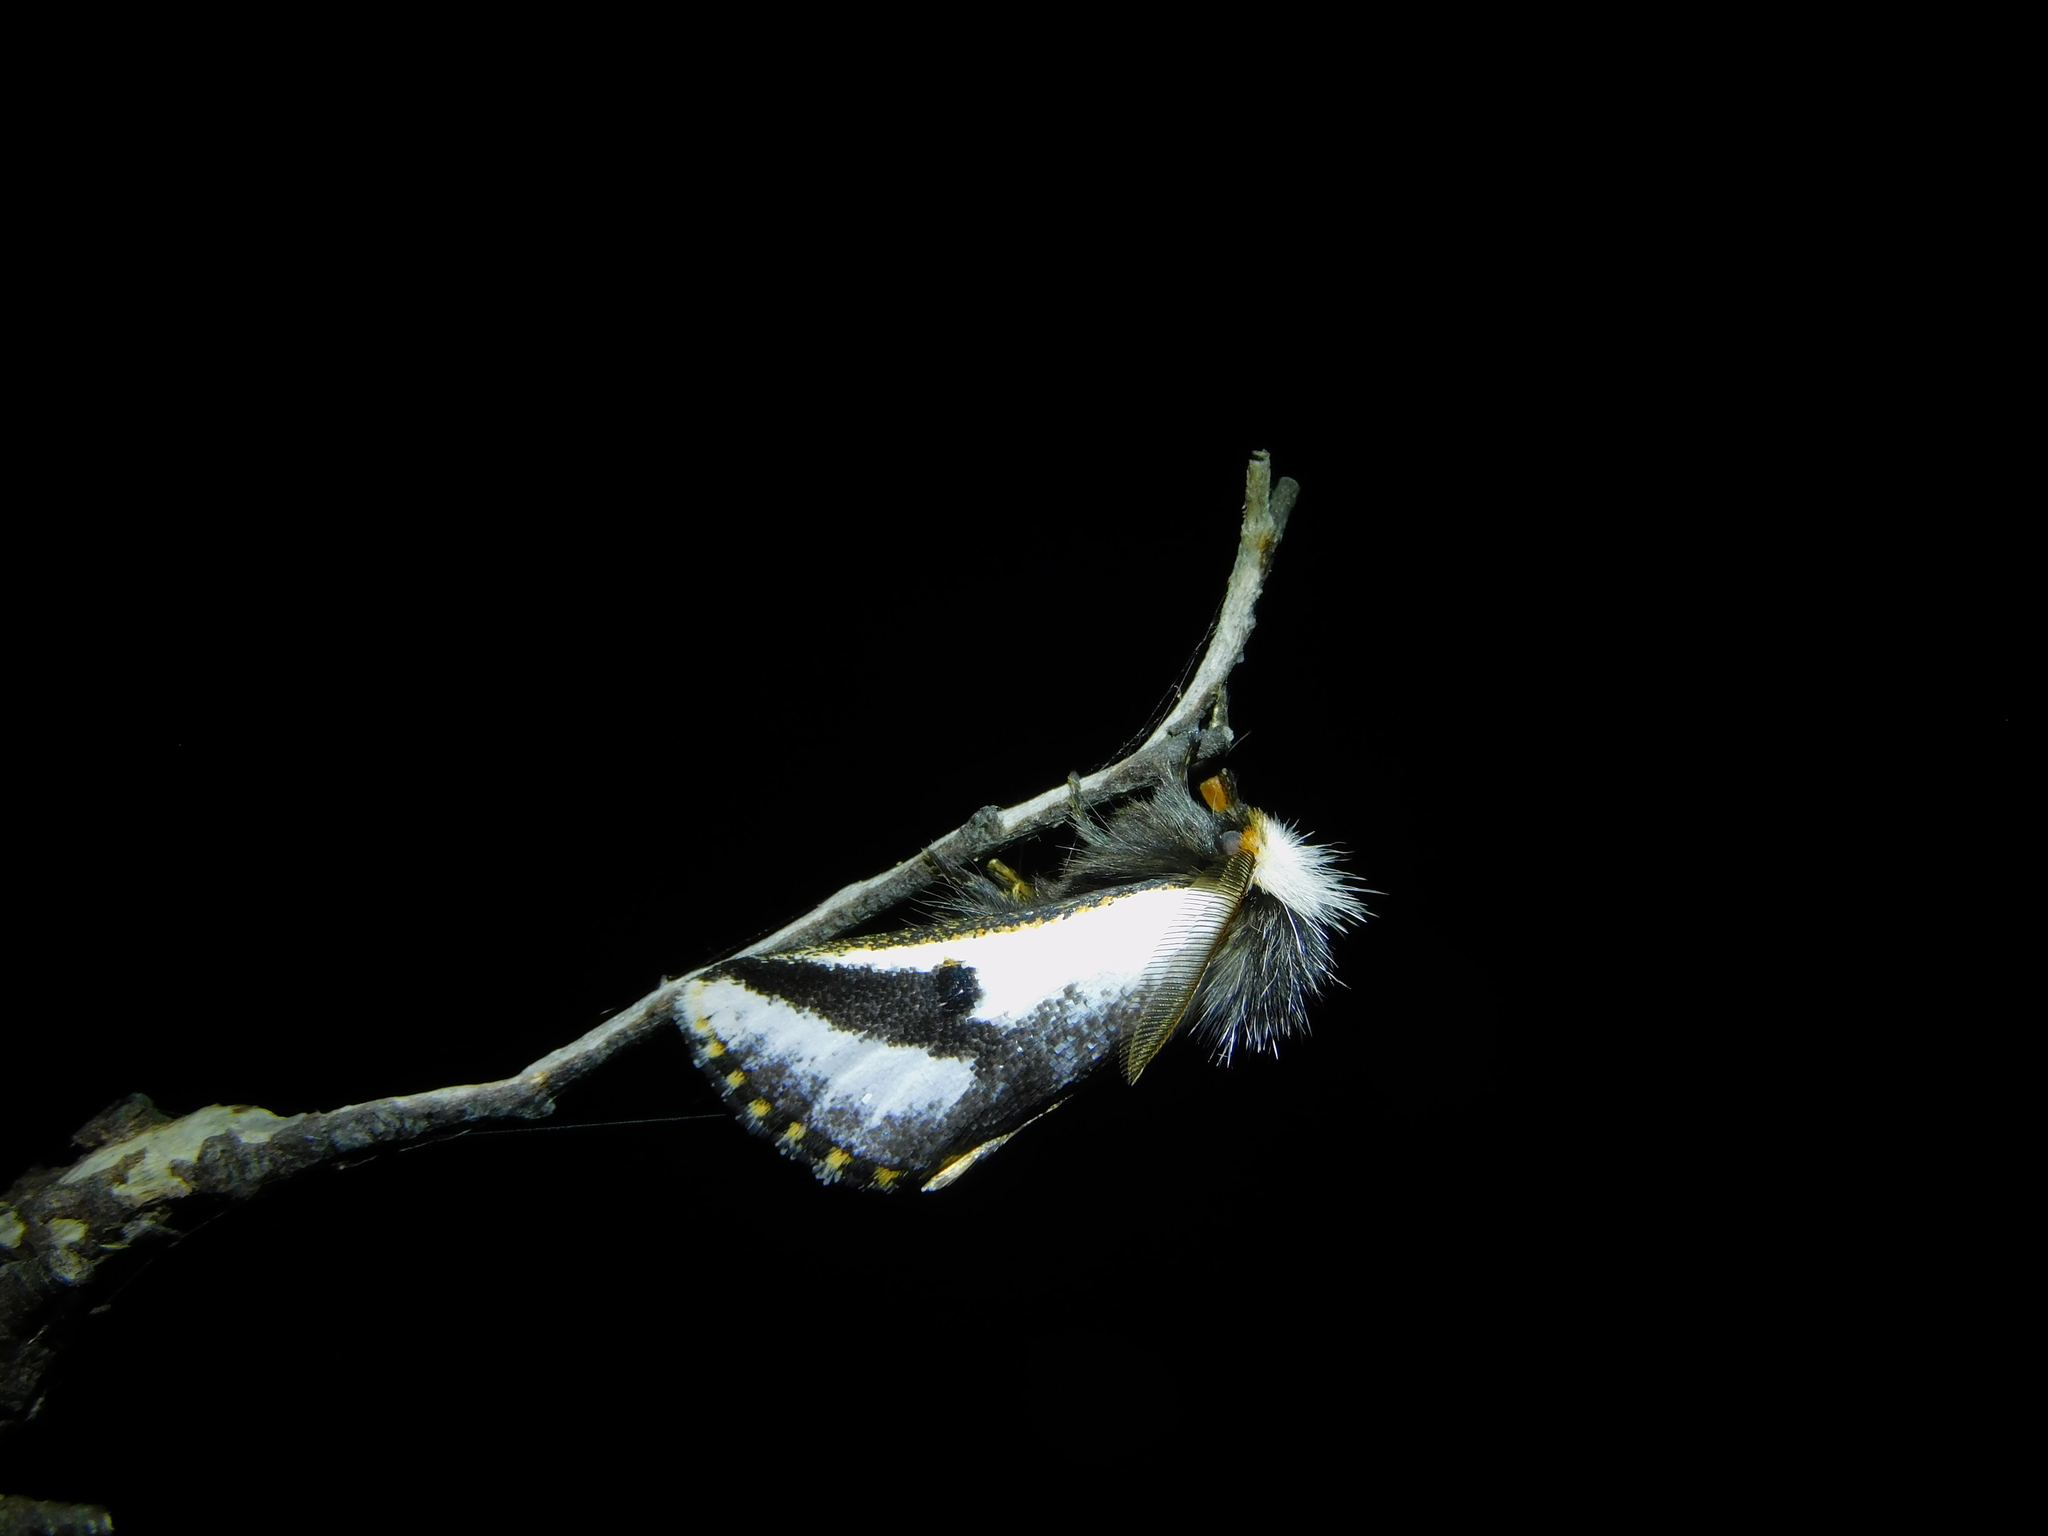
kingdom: Animalia
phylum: Arthropoda
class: Insecta
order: Lepidoptera
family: Notodontidae
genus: Epicoma
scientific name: Epicoma melanospila
